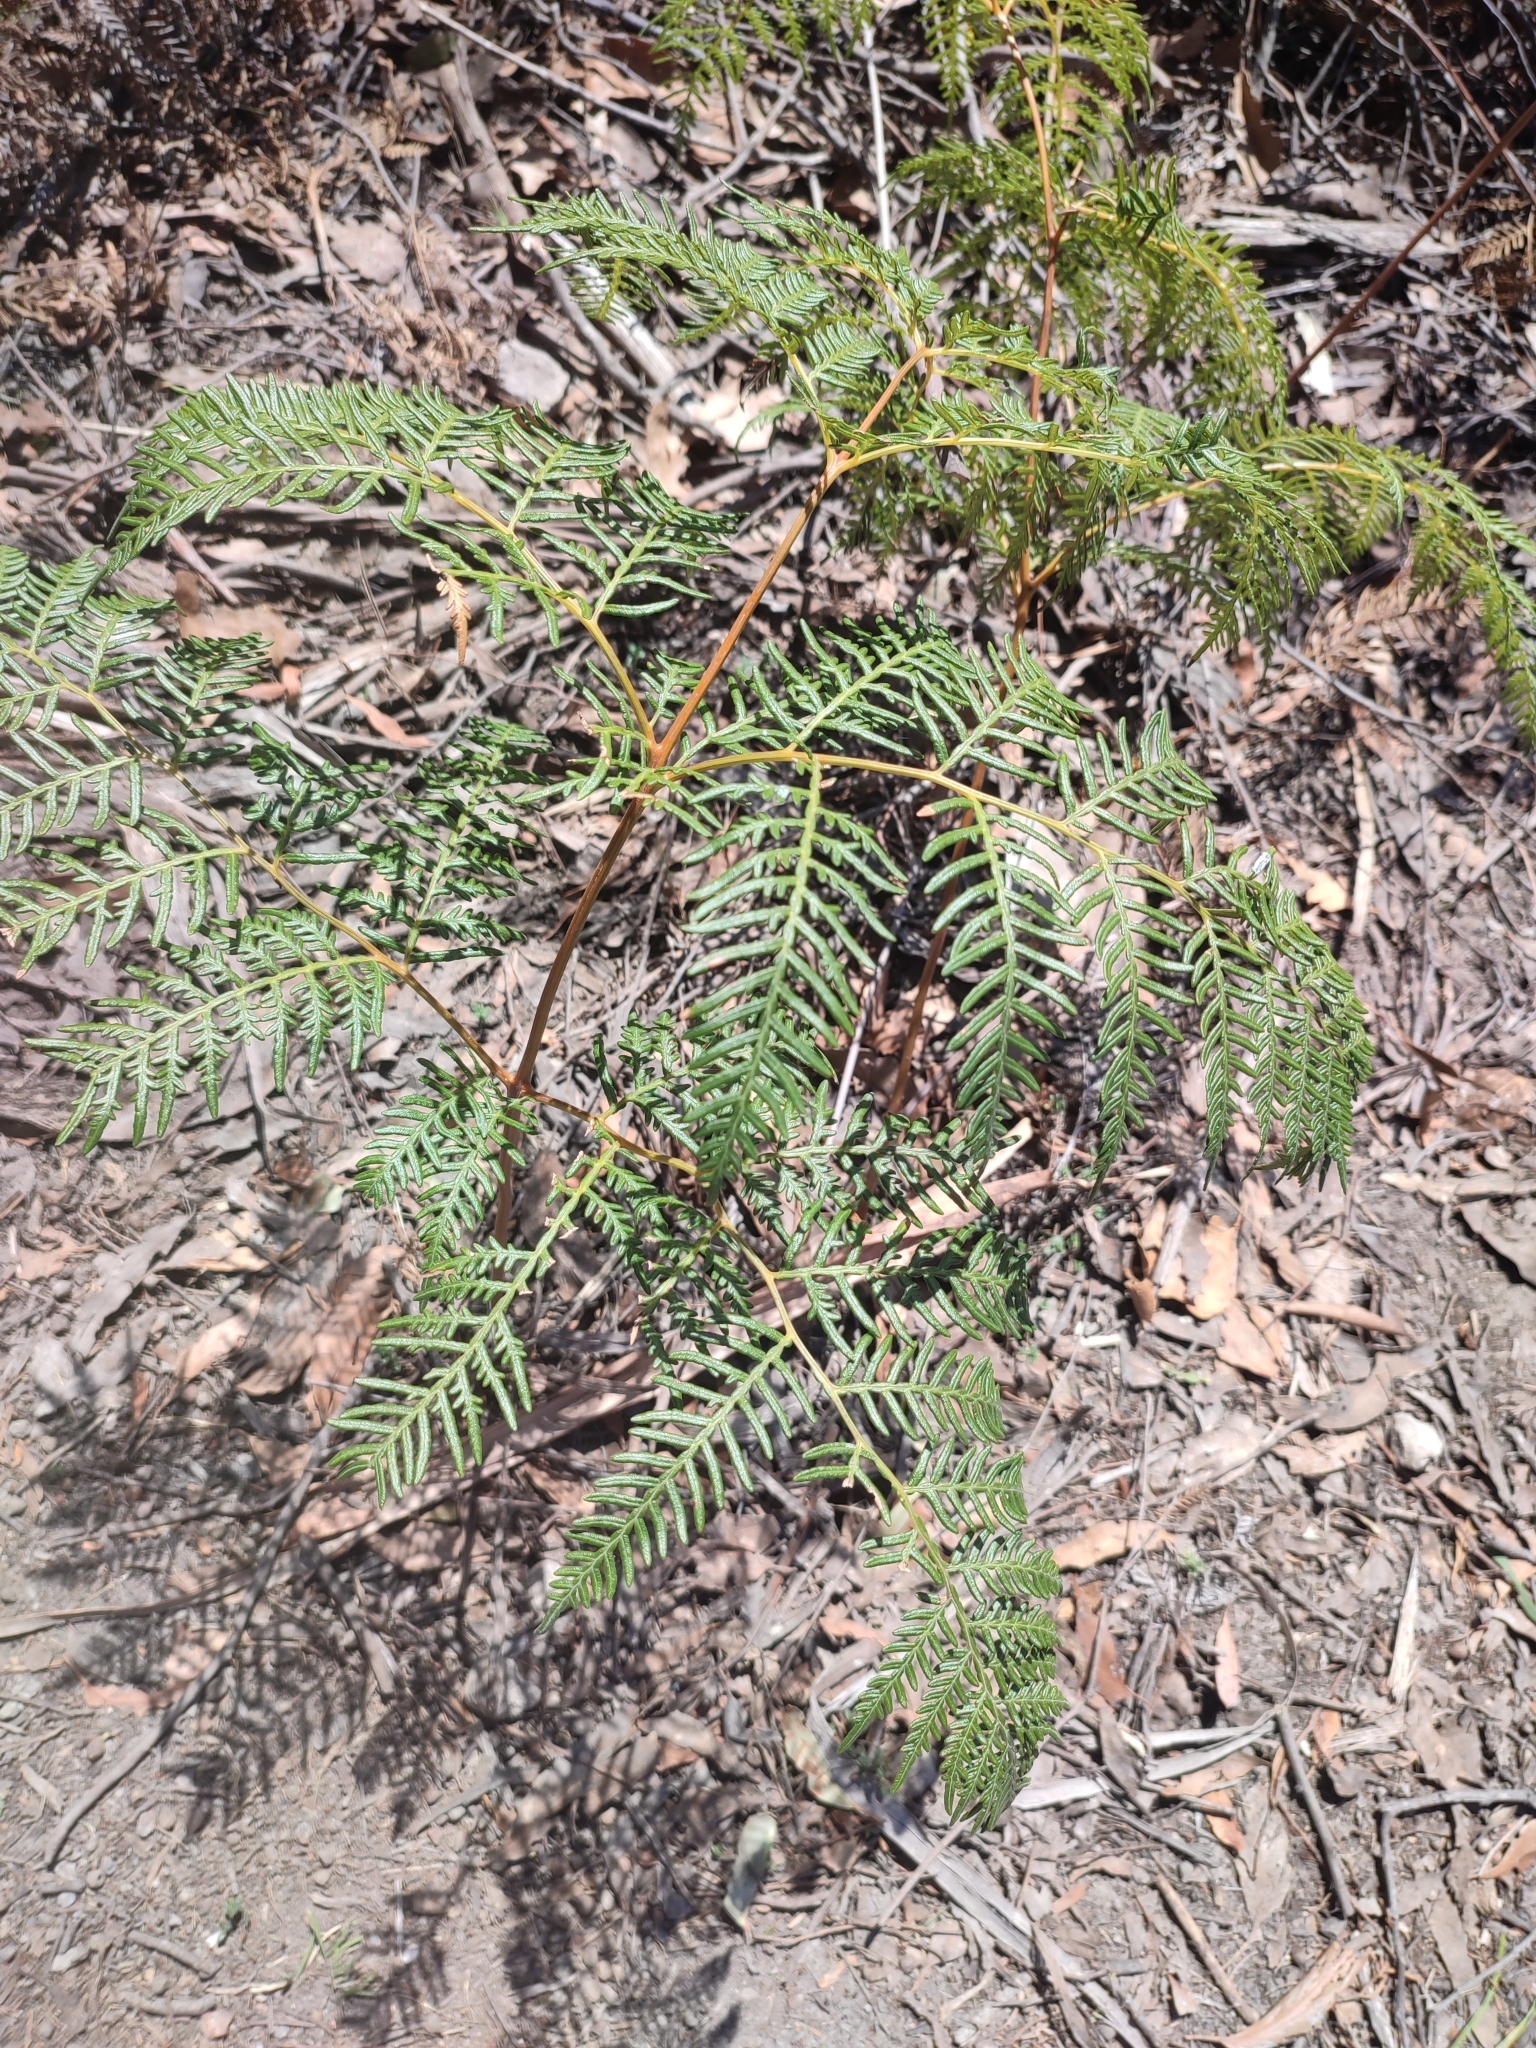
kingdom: Plantae
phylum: Tracheophyta
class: Polypodiopsida
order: Polypodiales
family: Dennstaedtiaceae
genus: Pteridium
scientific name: Pteridium esculentum
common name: Bracken fern
